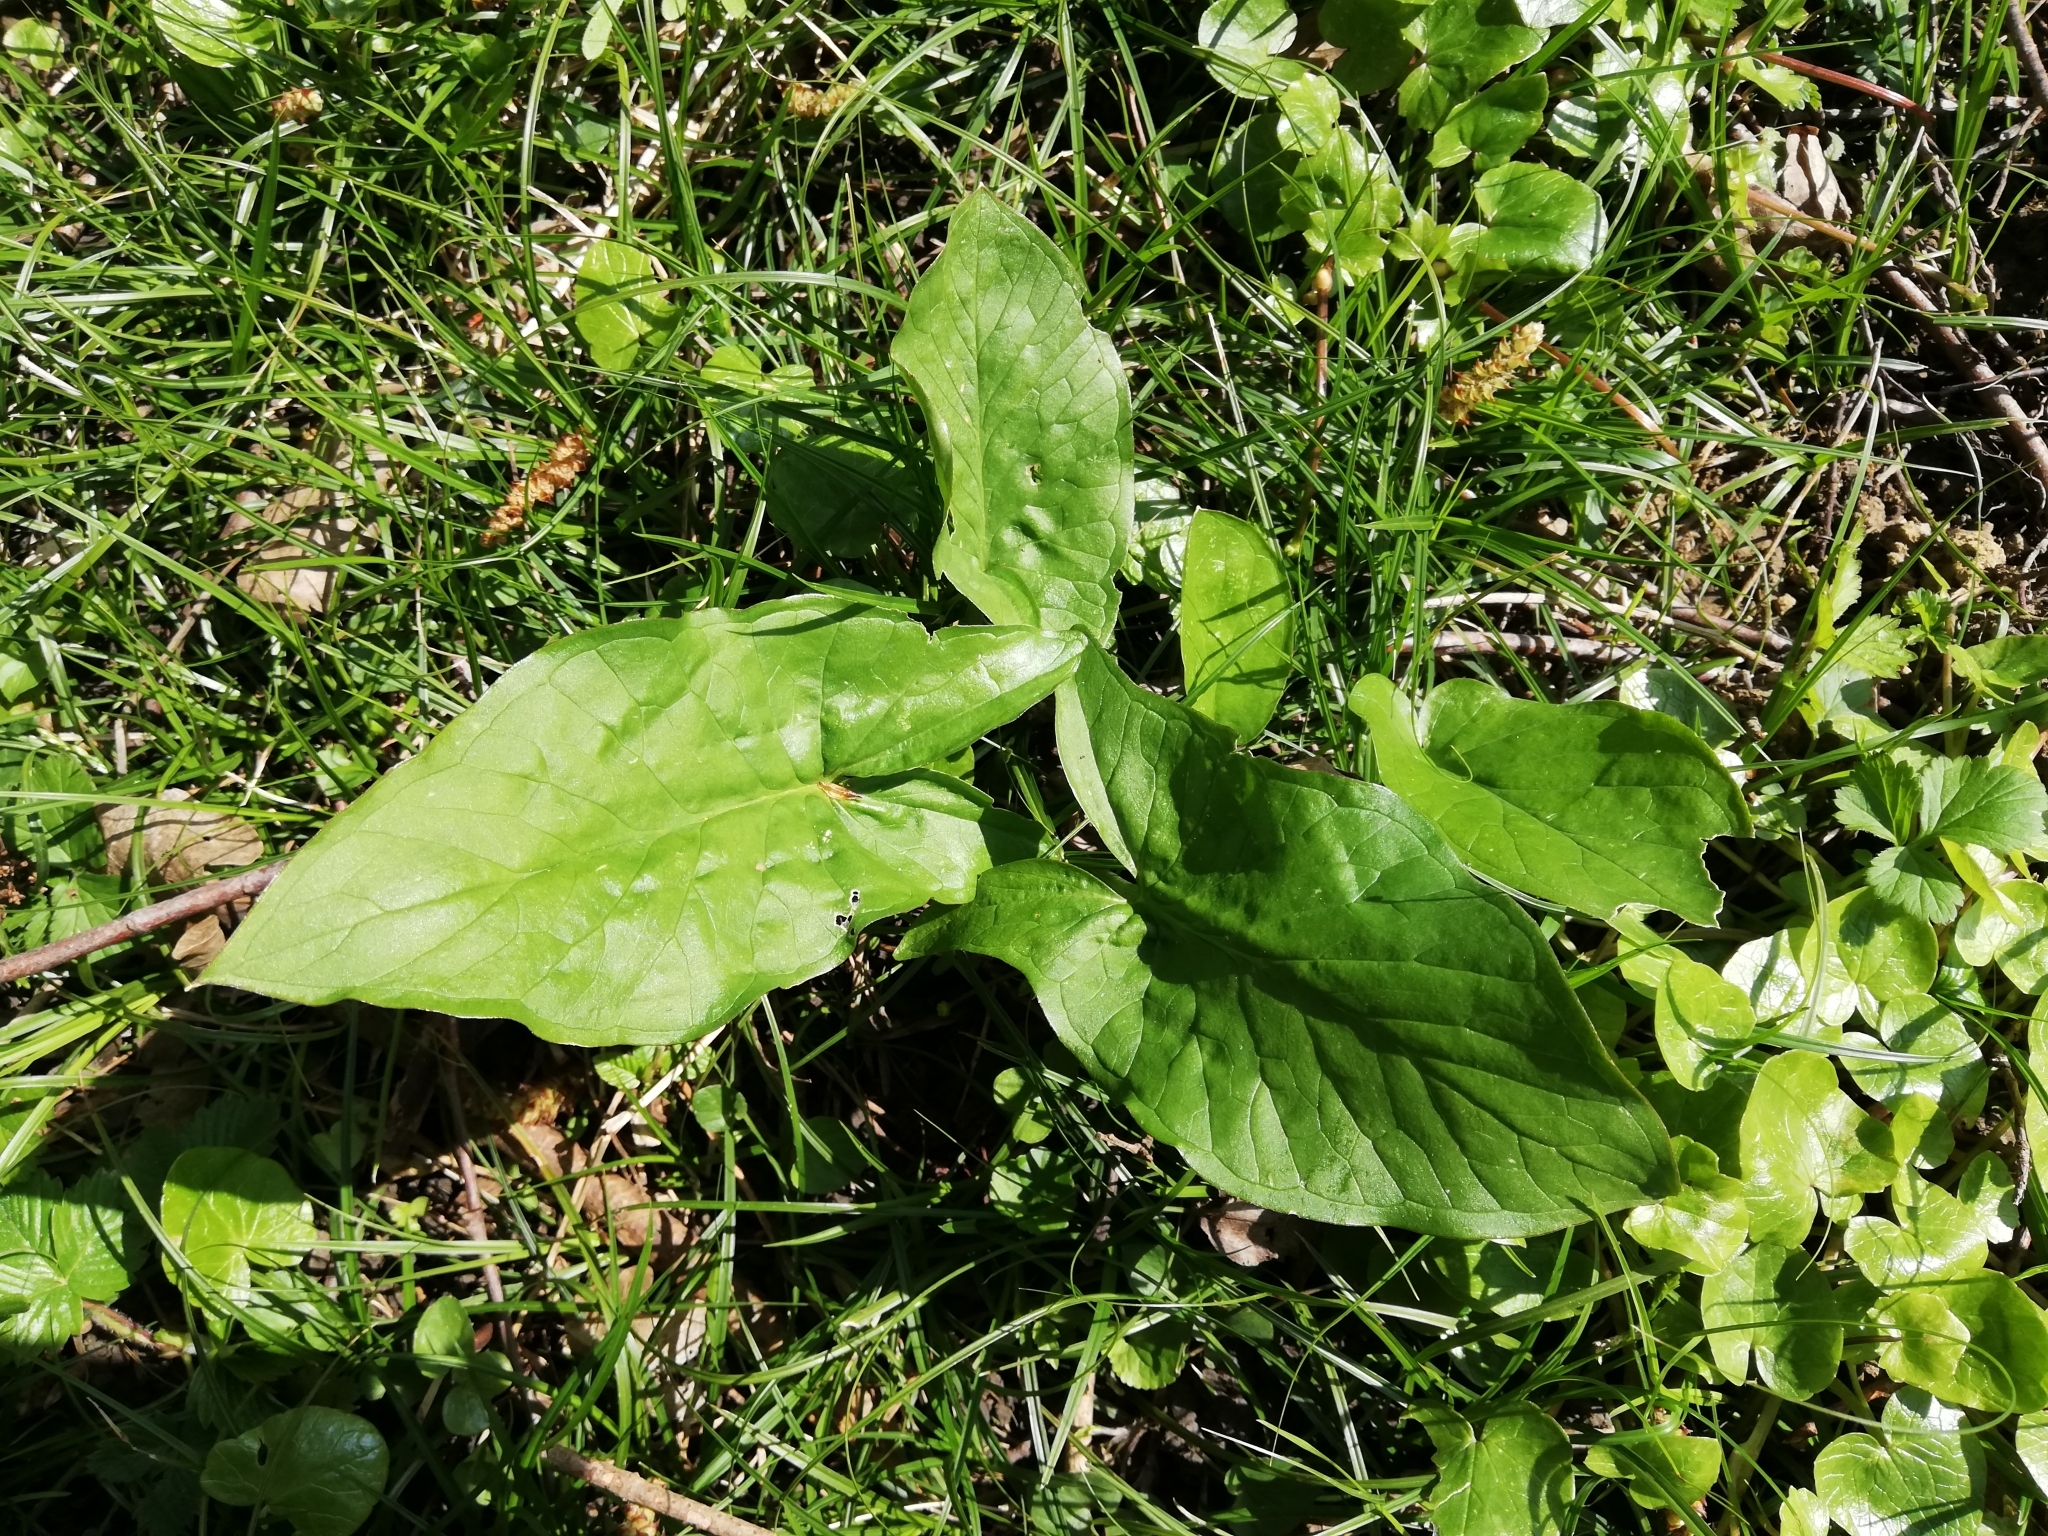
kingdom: Plantae
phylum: Tracheophyta
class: Liliopsida
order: Alismatales
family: Araceae
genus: Arum
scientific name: Arum maculatum
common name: Lords-and-ladies
